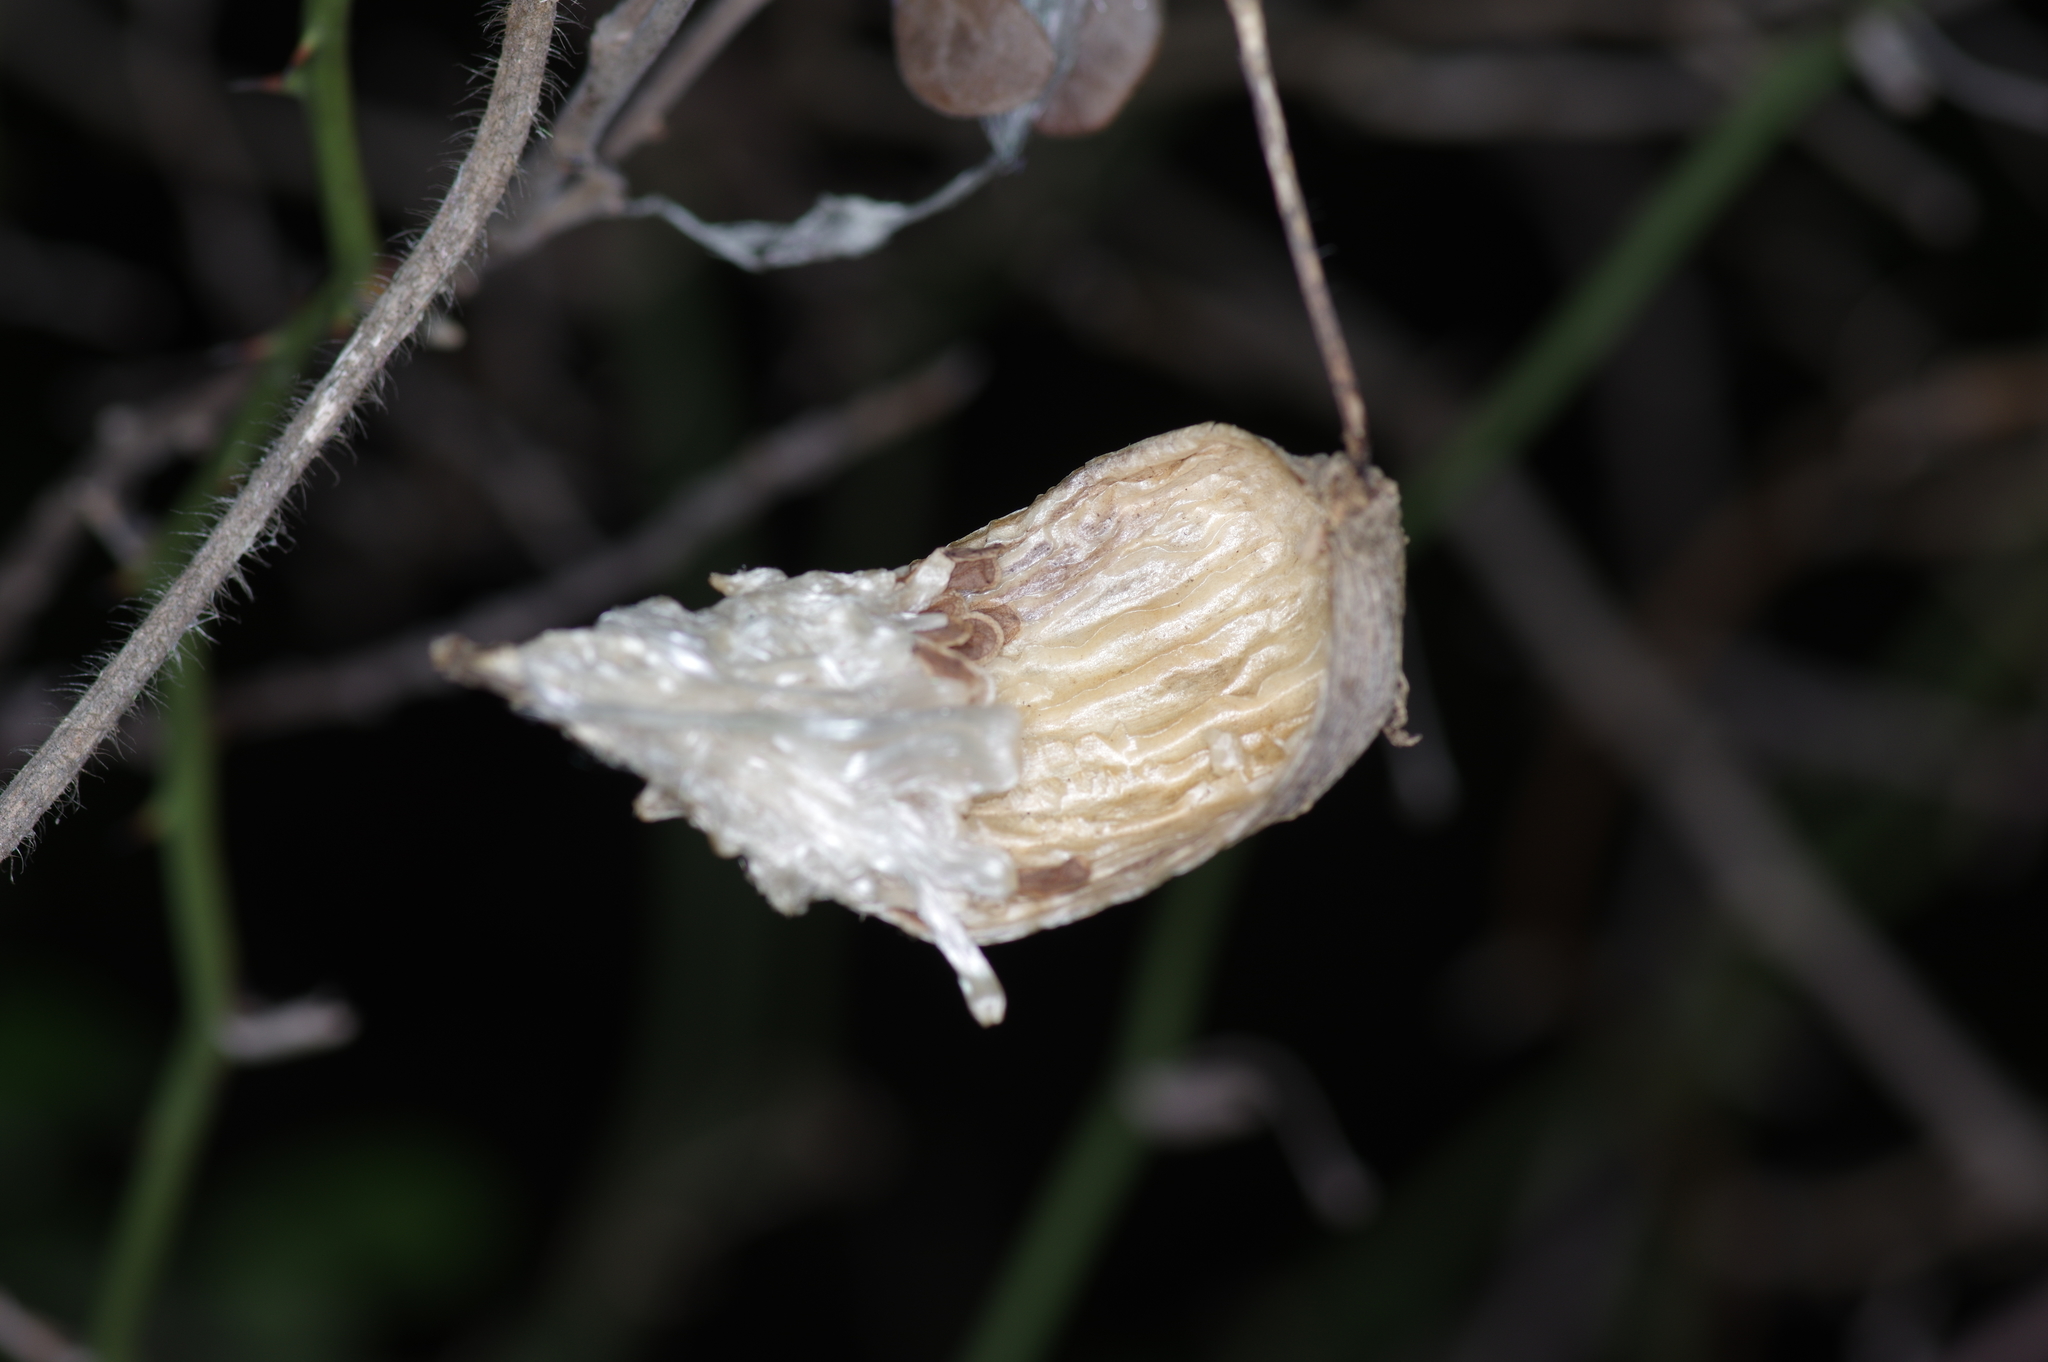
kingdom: Plantae
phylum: Tracheophyta
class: Magnoliopsida
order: Gentianales
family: Apocynaceae
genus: Dictyanthus
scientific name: Dictyanthus reticulatus
